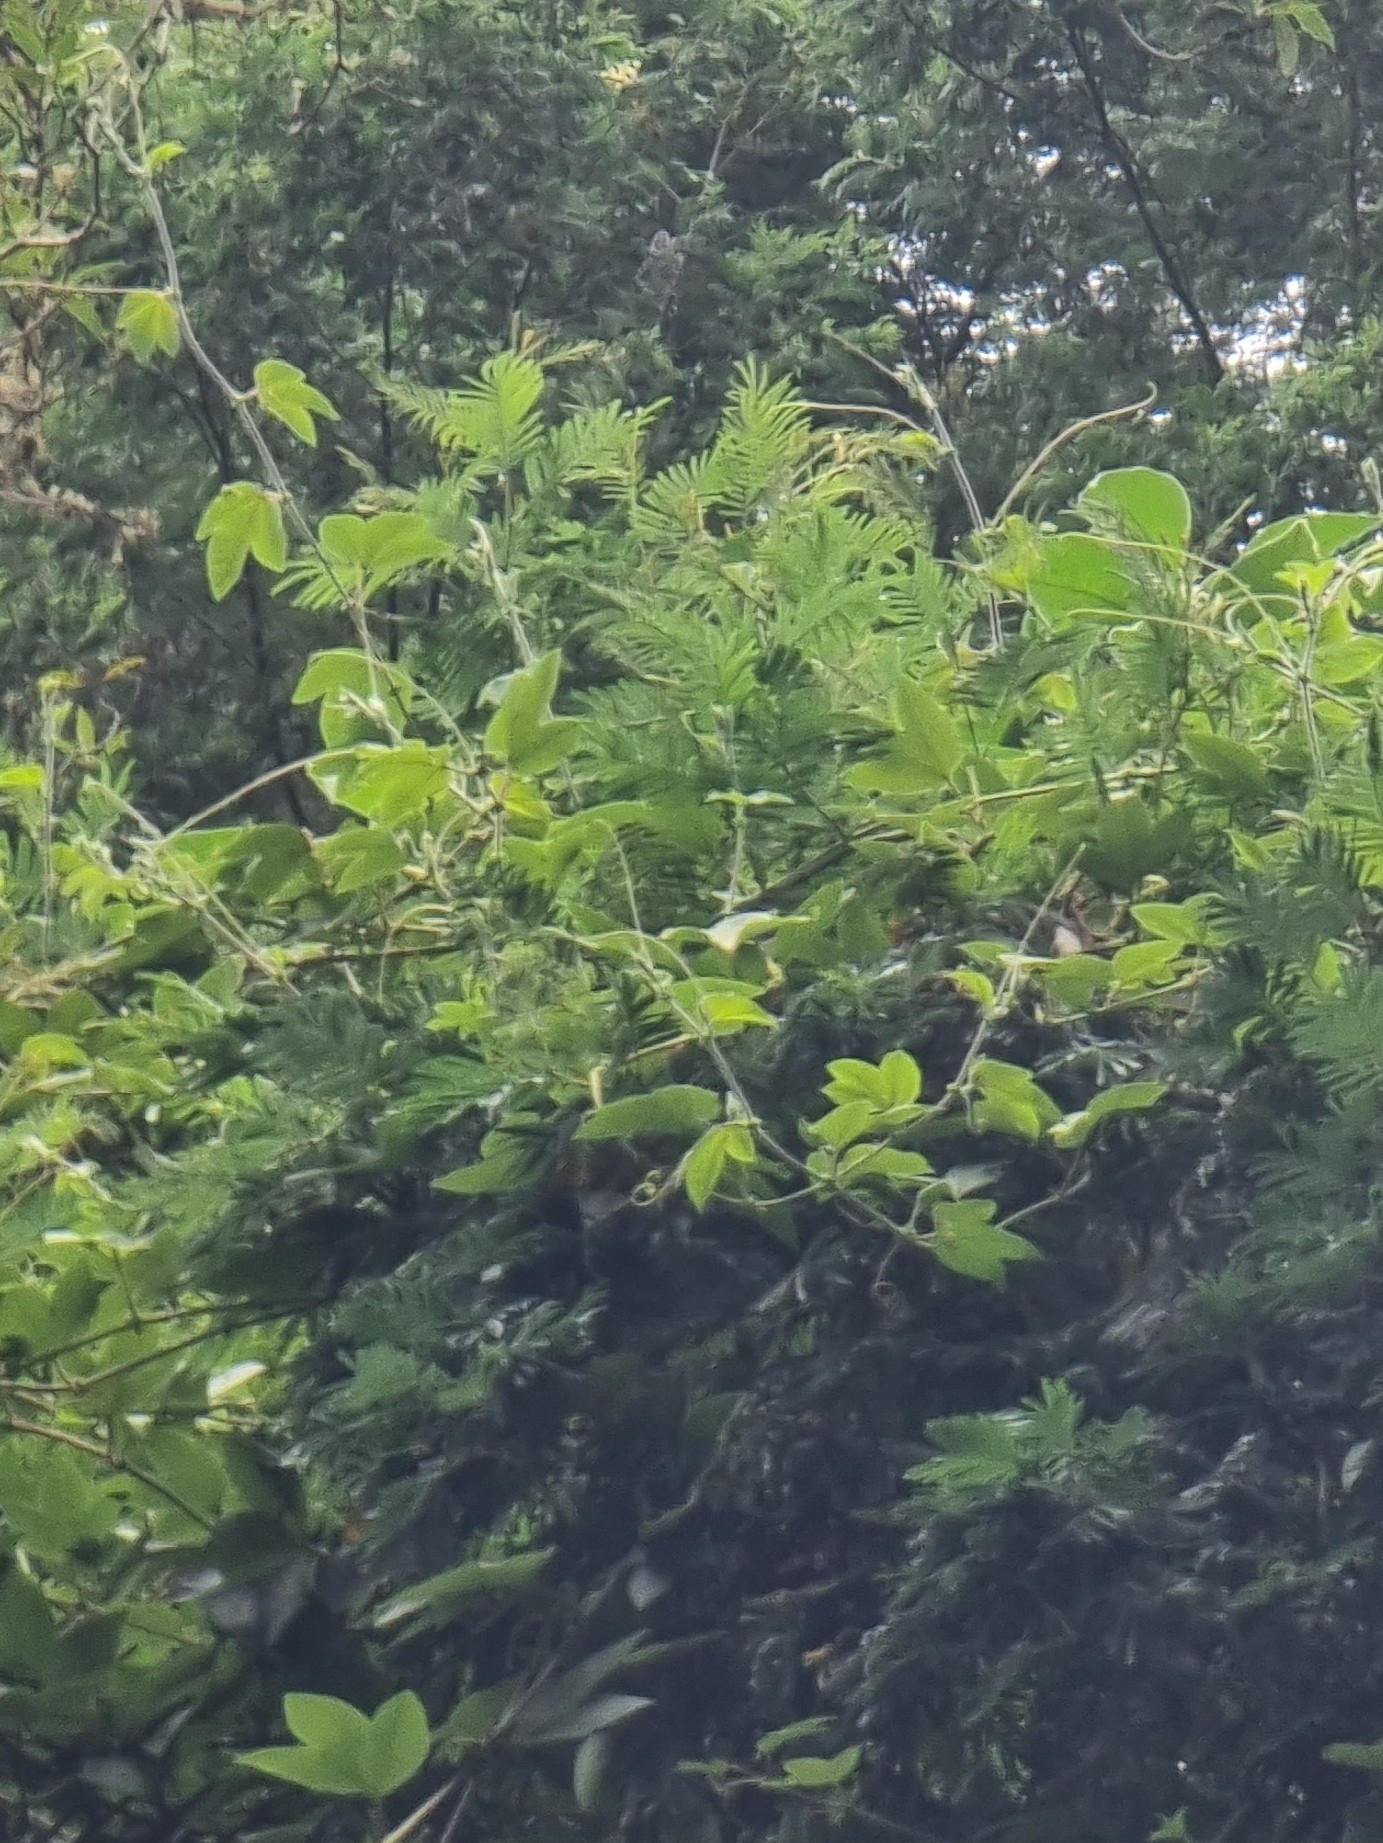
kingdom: Plantae
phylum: Tracheophyta
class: Magnoliopsida
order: Malpighiales
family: Passifloraceae
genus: Passiflora
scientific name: Passiflora tarminiana
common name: Banana poka
